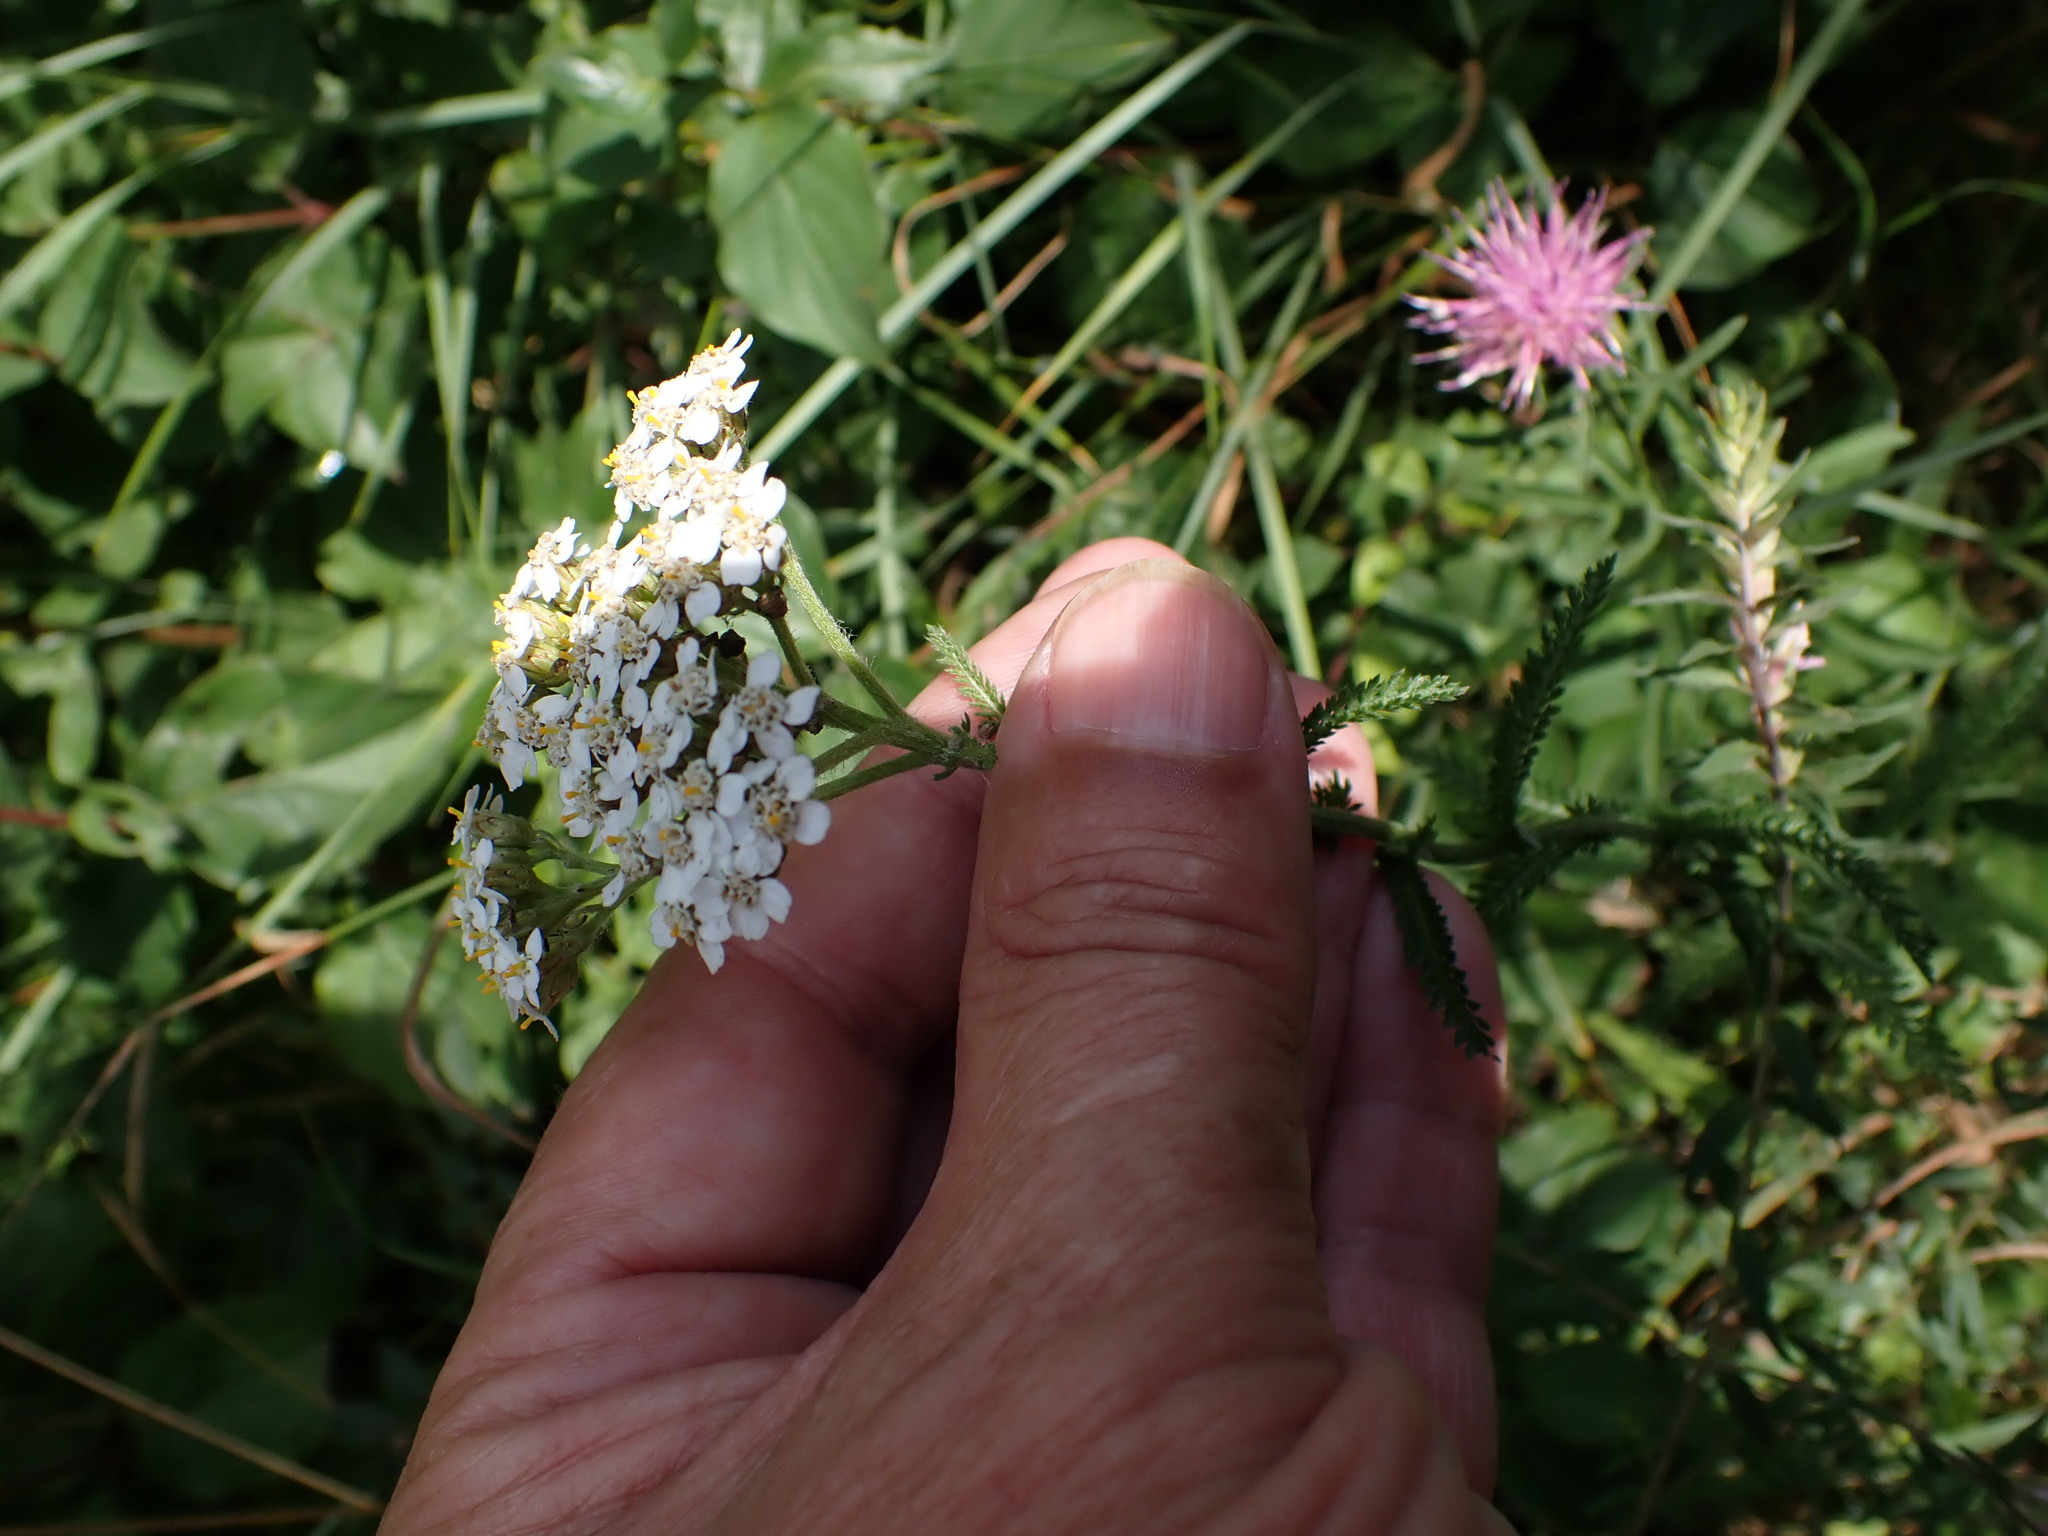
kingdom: Plantae
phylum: Tracheophyta
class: Magnoliopsida
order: Asterales
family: Asteraceae
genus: Achillea
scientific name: Achillea millefolium
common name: Yarrow
